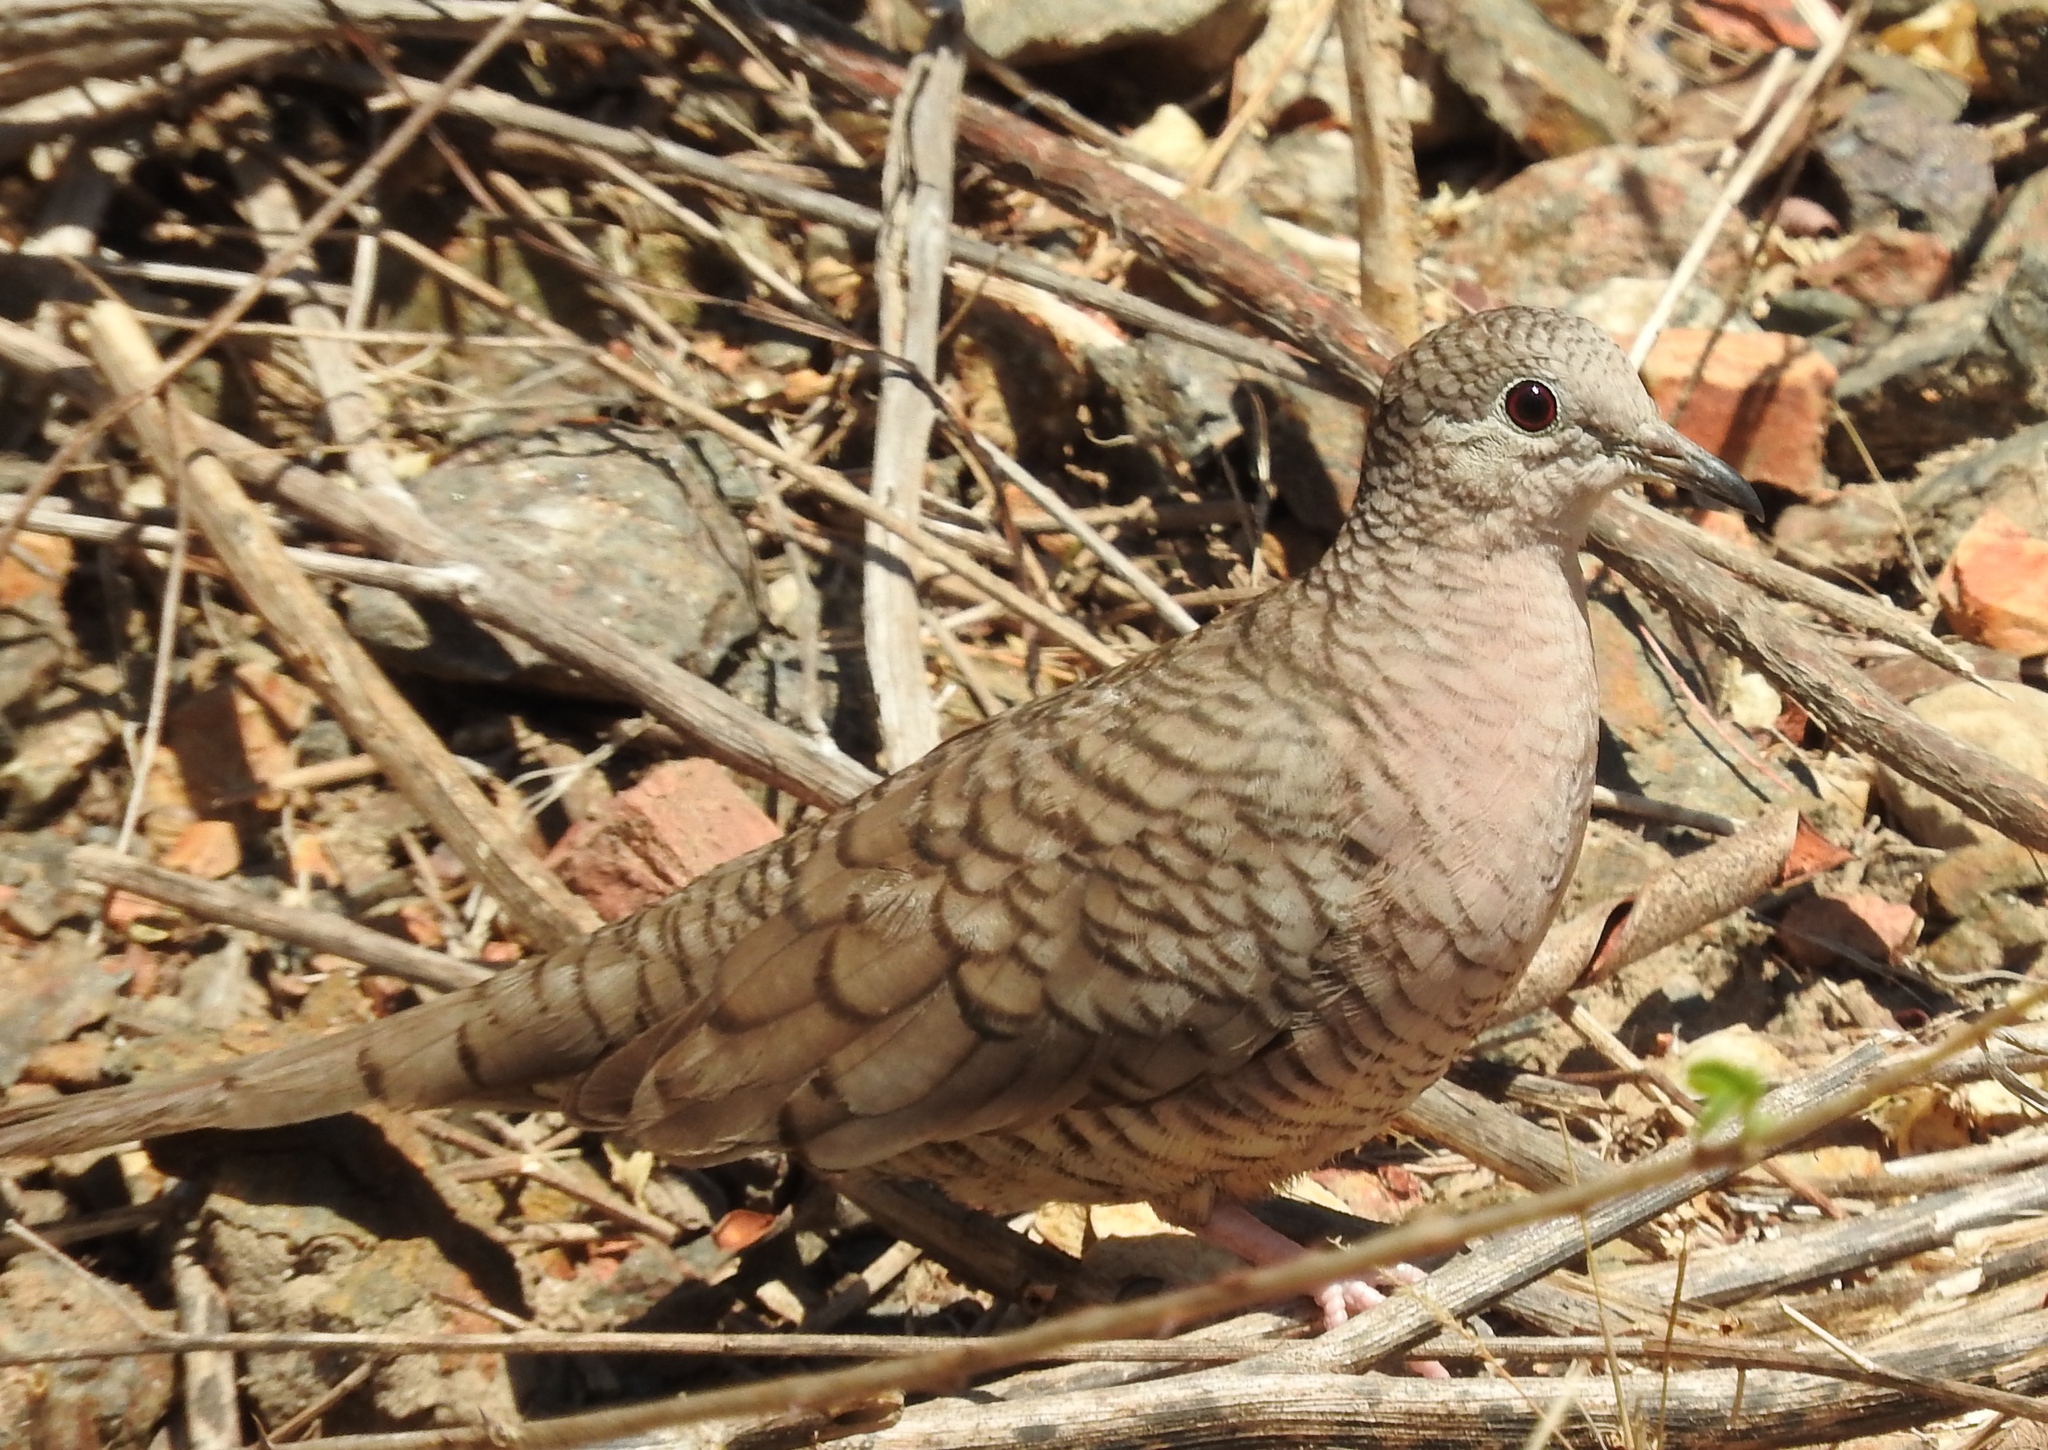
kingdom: Animalia
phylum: Chordata
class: Aves
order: Columbiformes
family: Columbidae
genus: Columbina
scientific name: Columbina inca
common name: Inca dove
